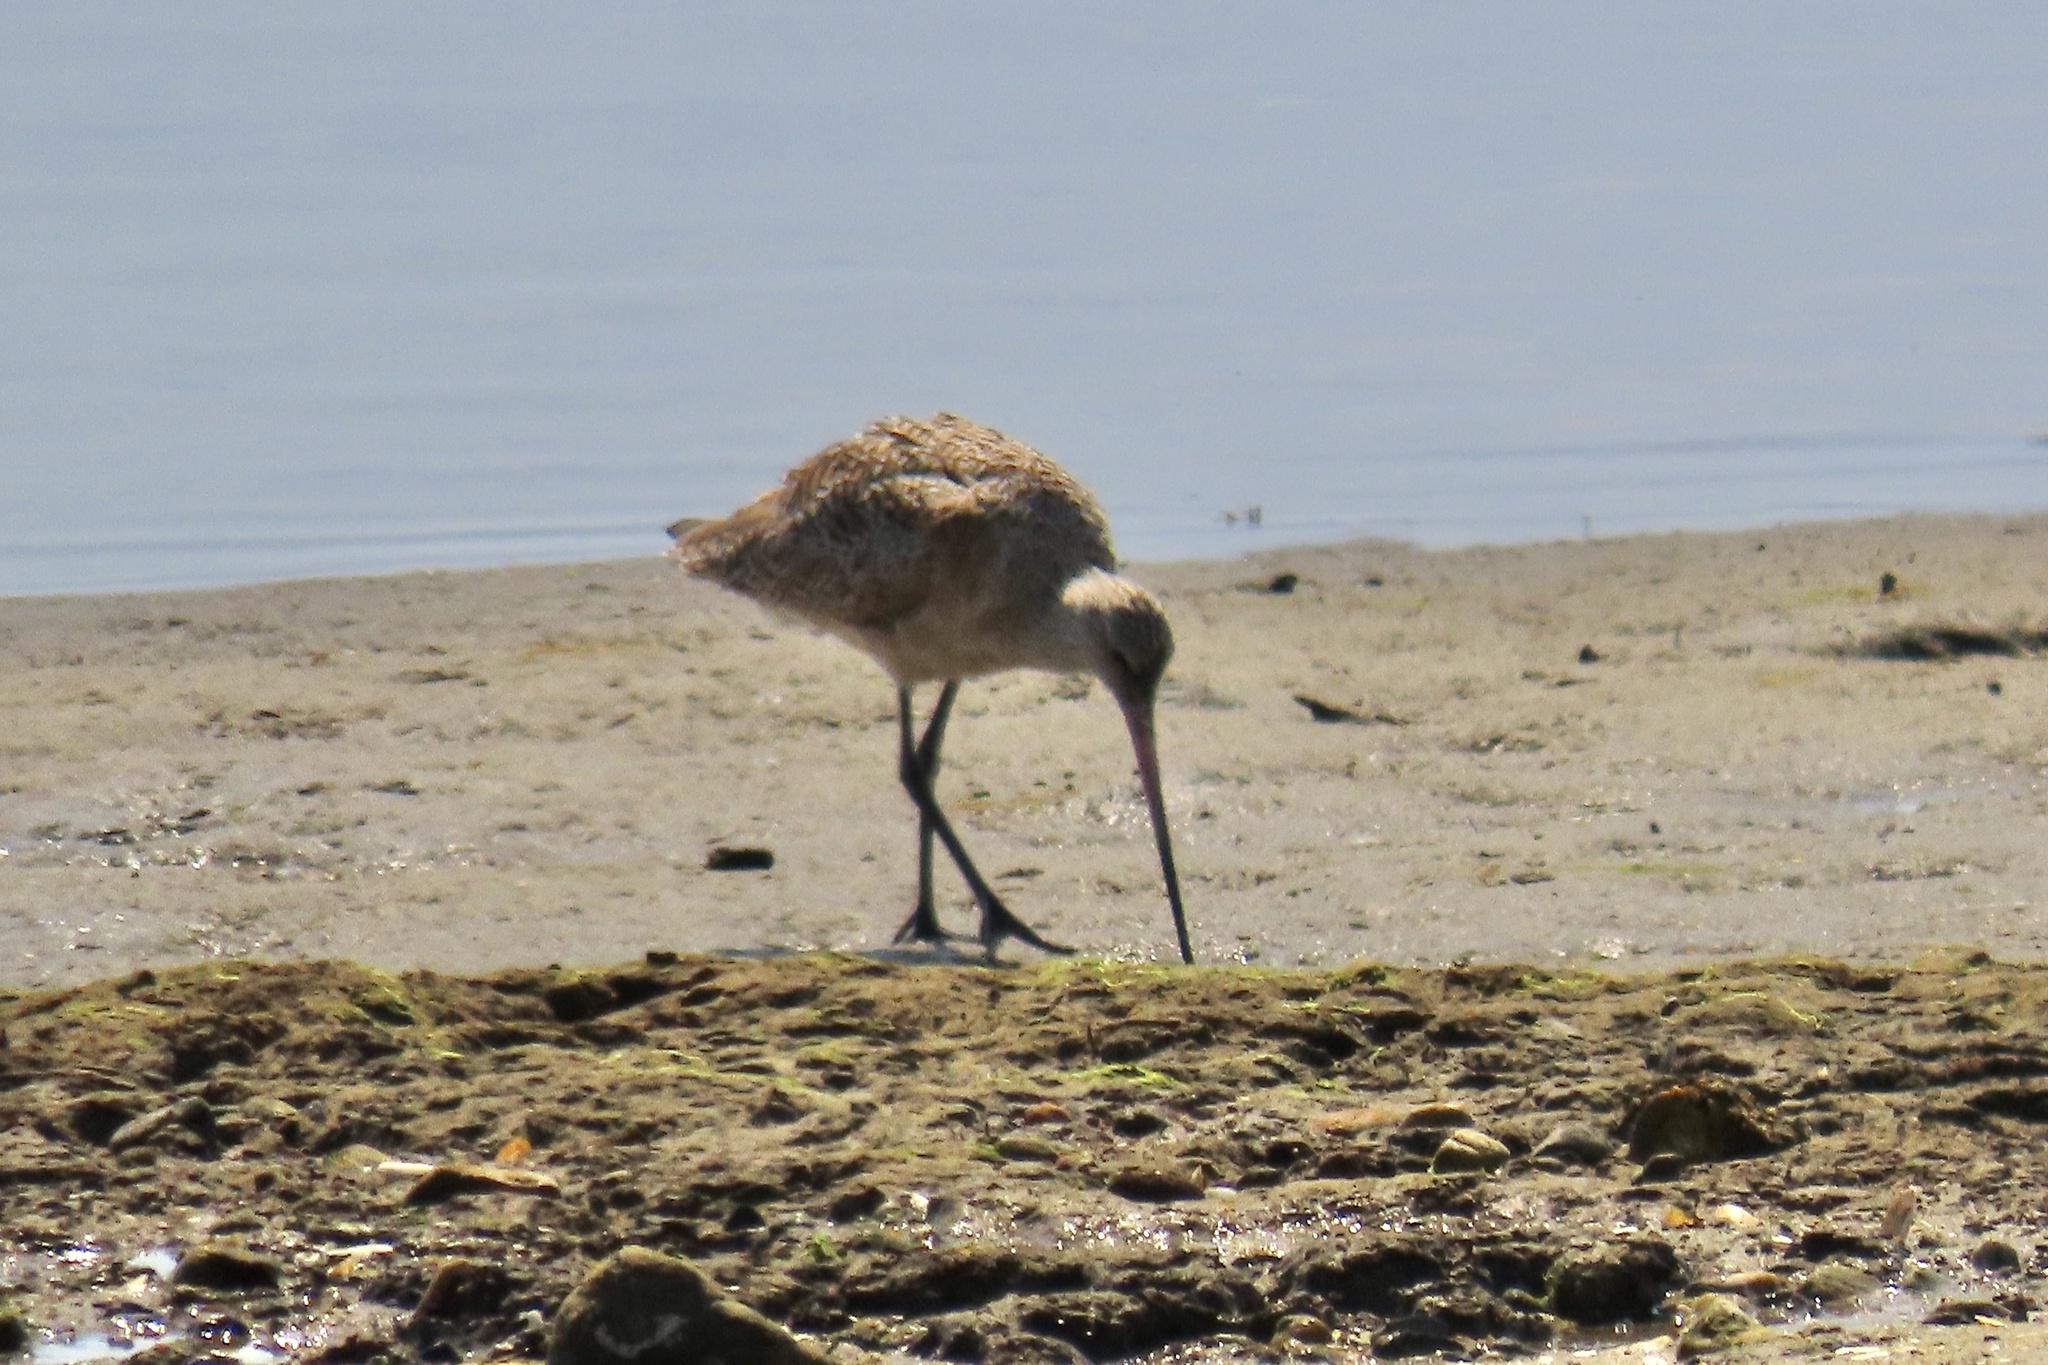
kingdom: Animalia
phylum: Chordata
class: Aves
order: Charadriiformes
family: Scolopacidae
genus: Limosa
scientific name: Limosa fedoa
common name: Marbled godwit
